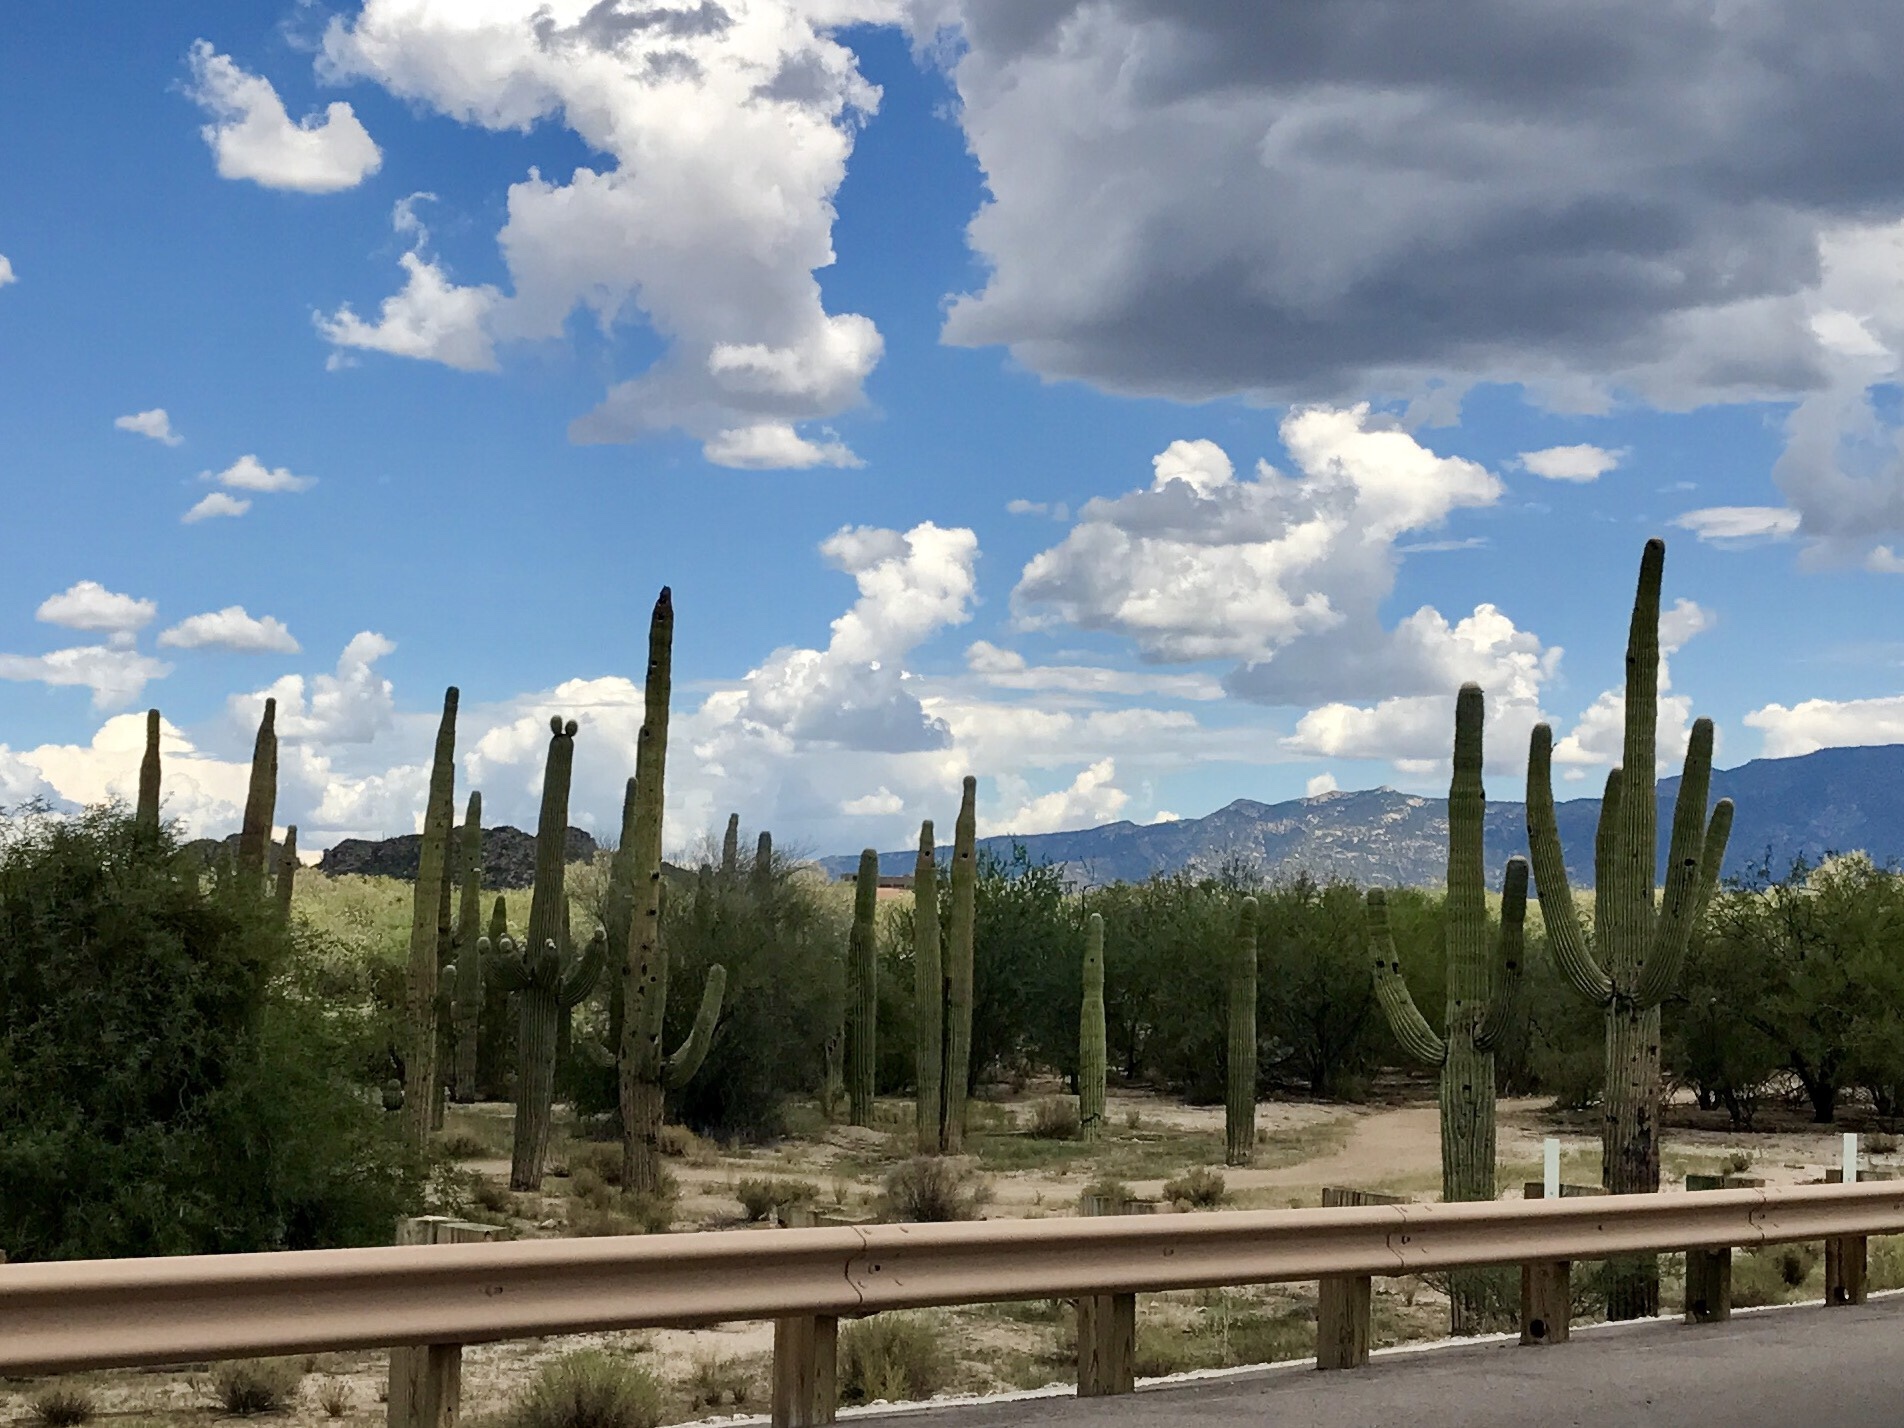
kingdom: Plantae
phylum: Tracheophyta
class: Magnoliopsida
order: Caryophyllales
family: Cactaceae
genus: Carnegiea
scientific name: Carnegiea gigantea
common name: Saguaro
